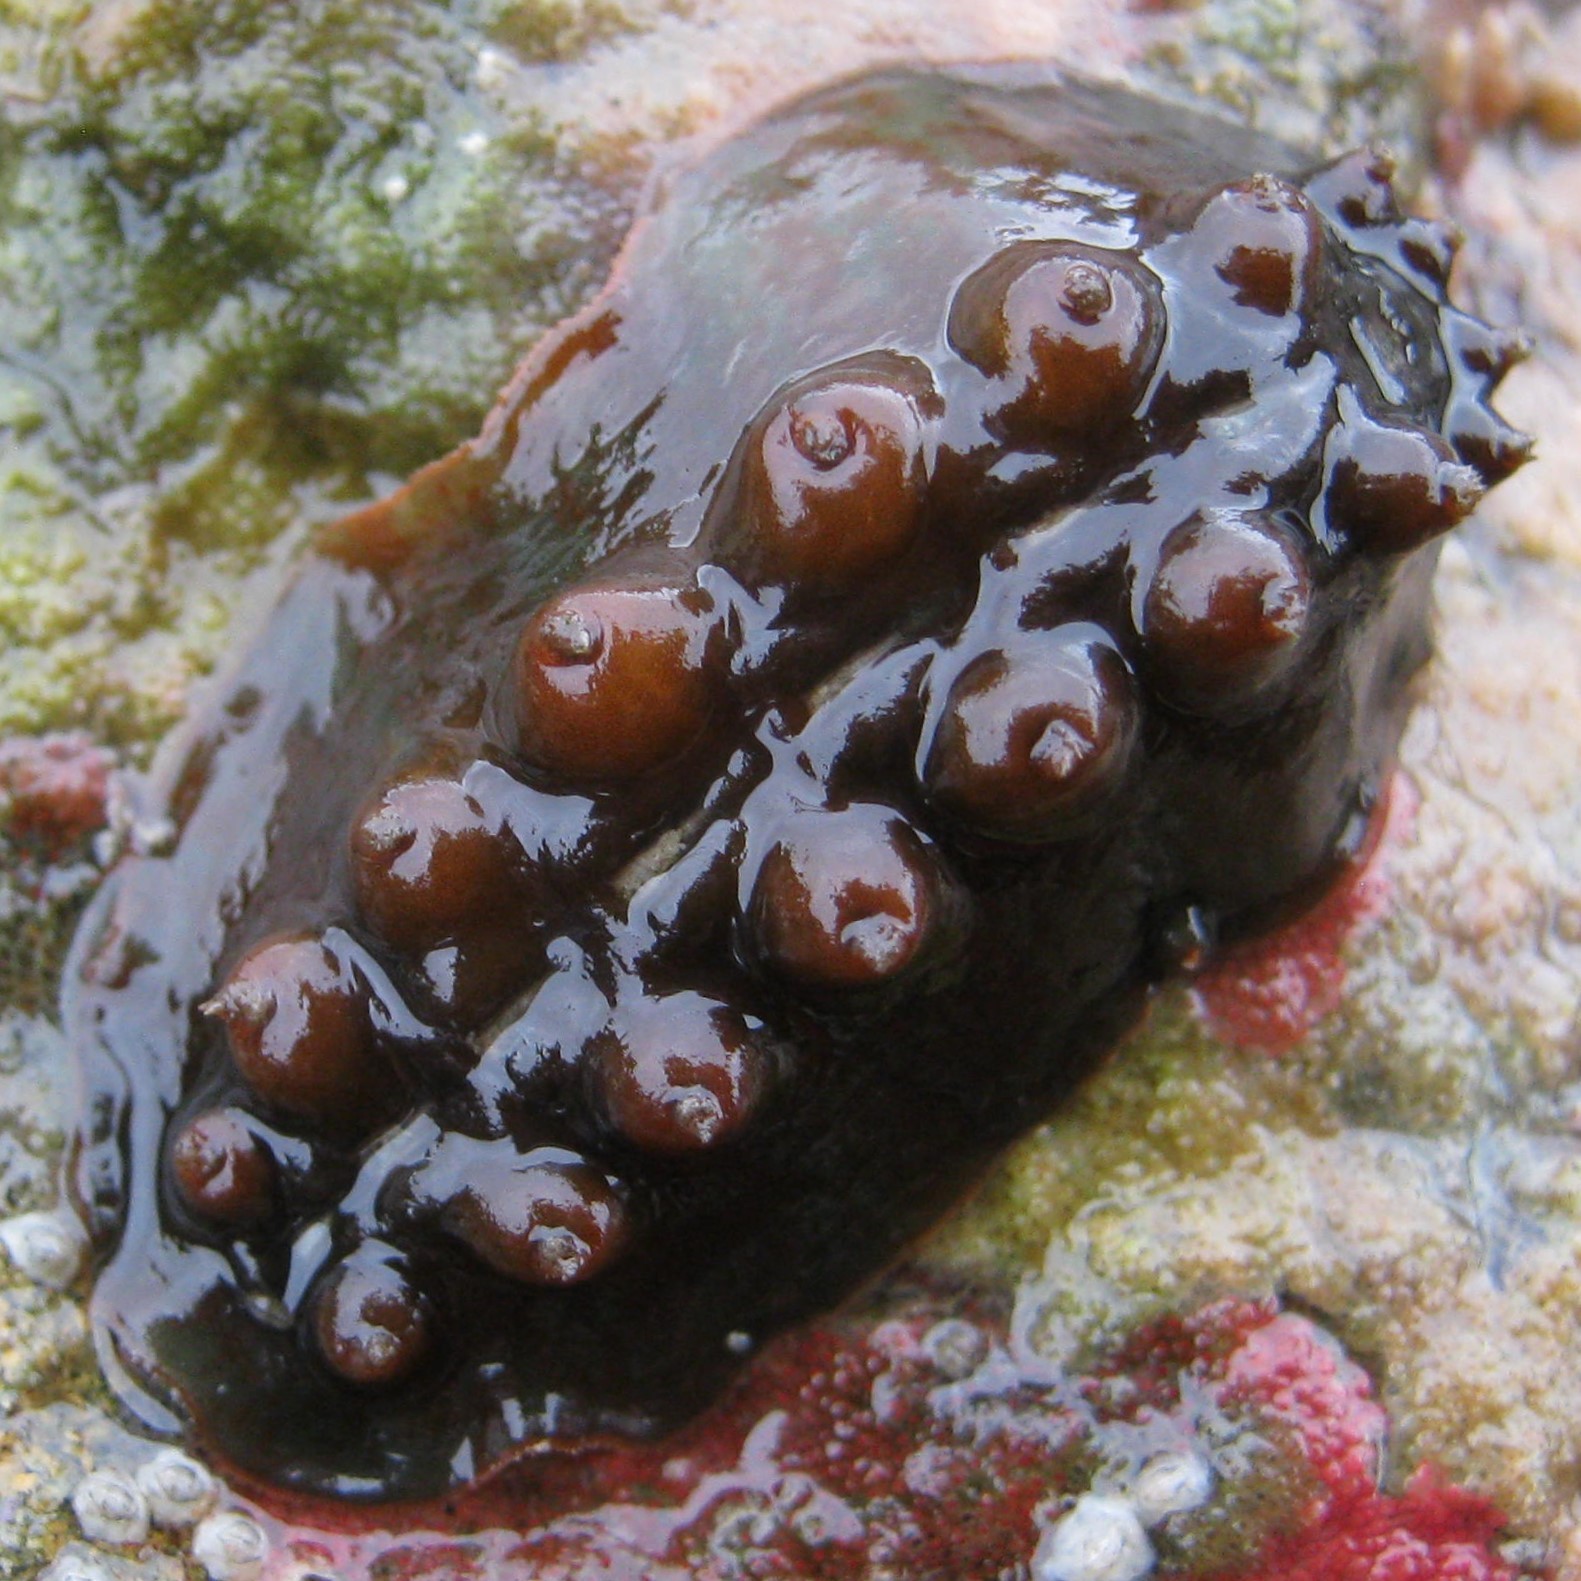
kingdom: Animalia
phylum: Mollusca
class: Polyplacophora
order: Chitonida
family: Acanthochitonidae
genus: Cryptoconchus
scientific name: Cryptoconchus porosus
